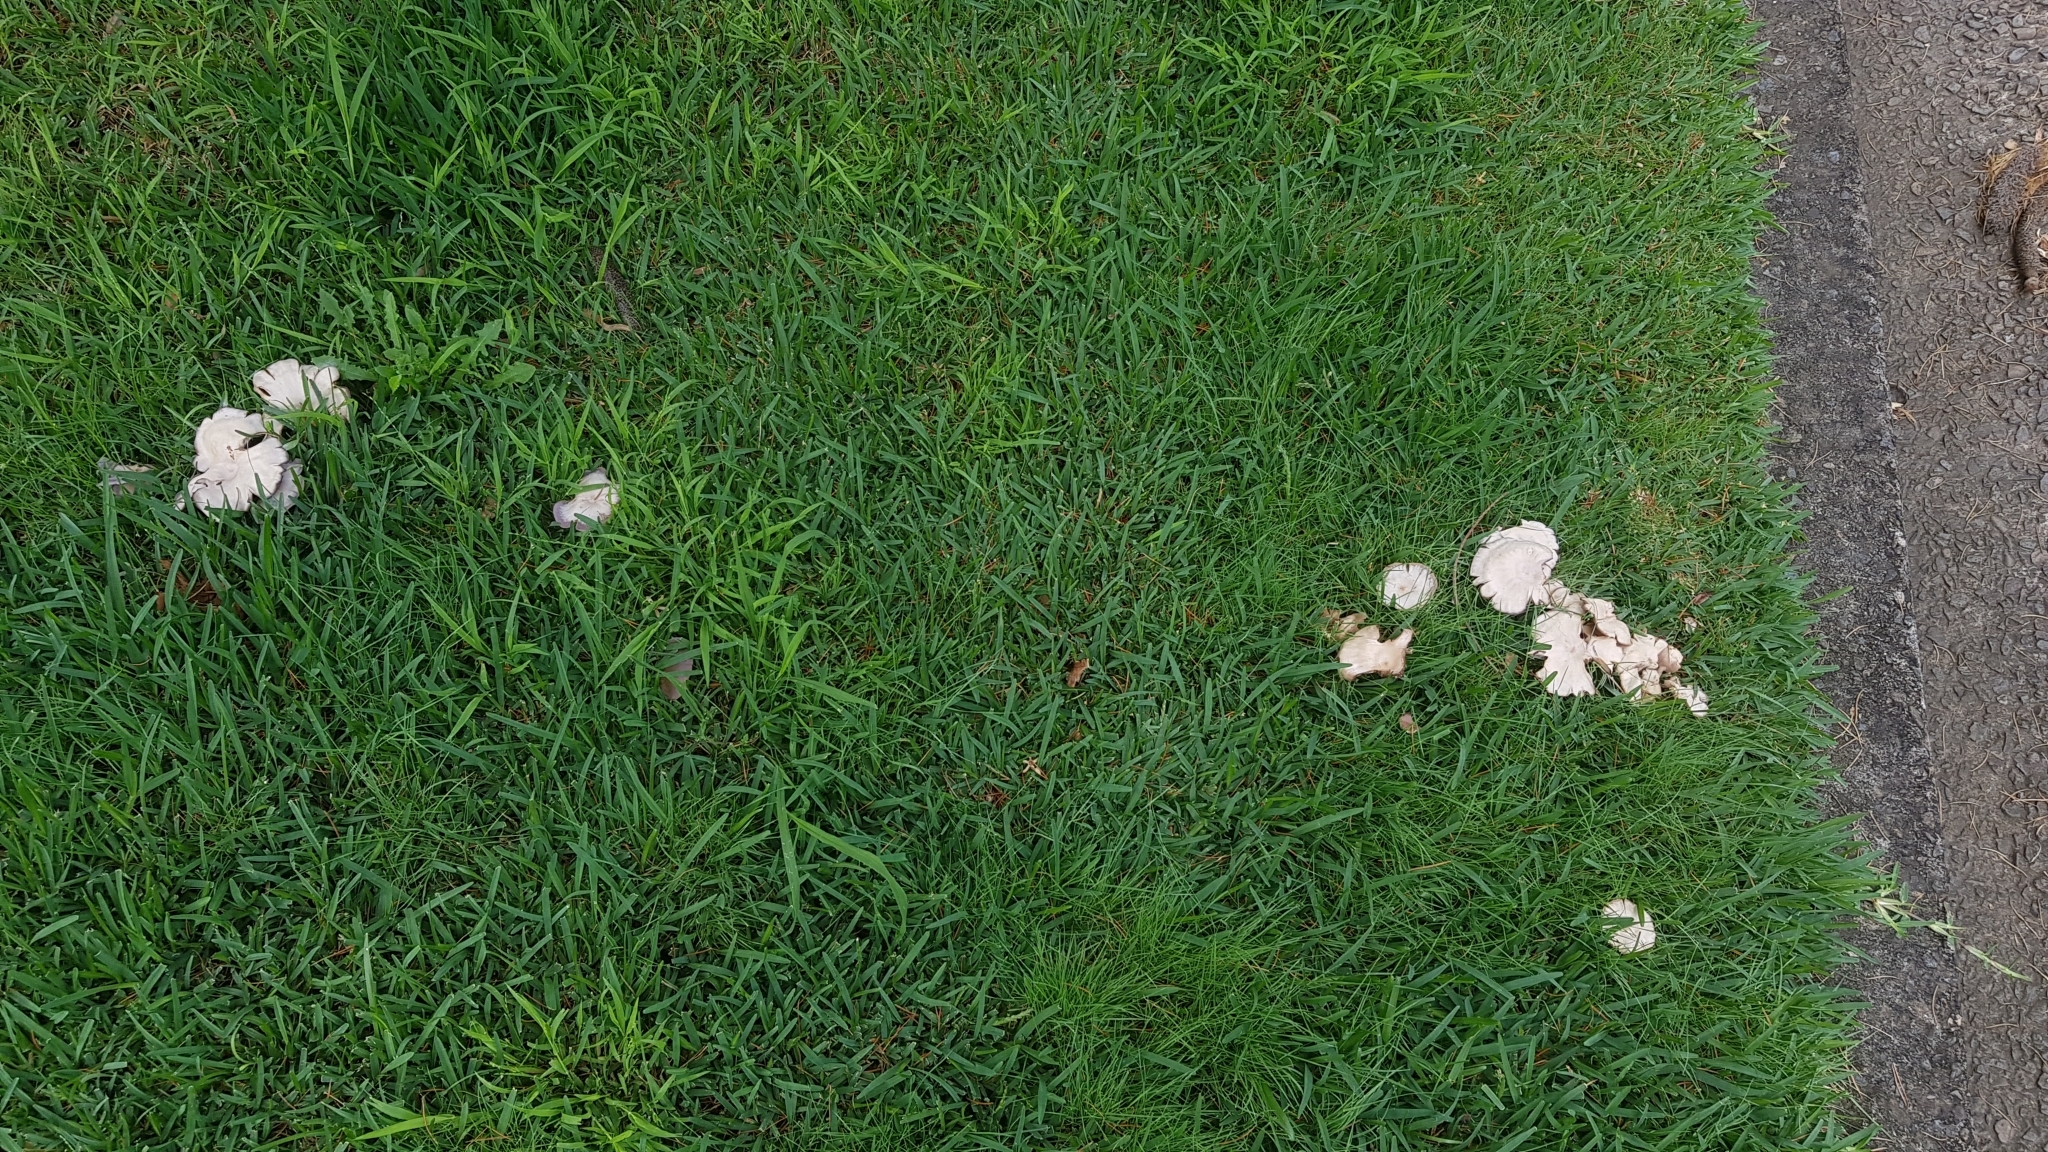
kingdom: Fungi
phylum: Basidiomycota
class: Agaricomycetes
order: Agaricales
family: Tricholomataceae
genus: Lepista
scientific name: Lepista sublilacina
